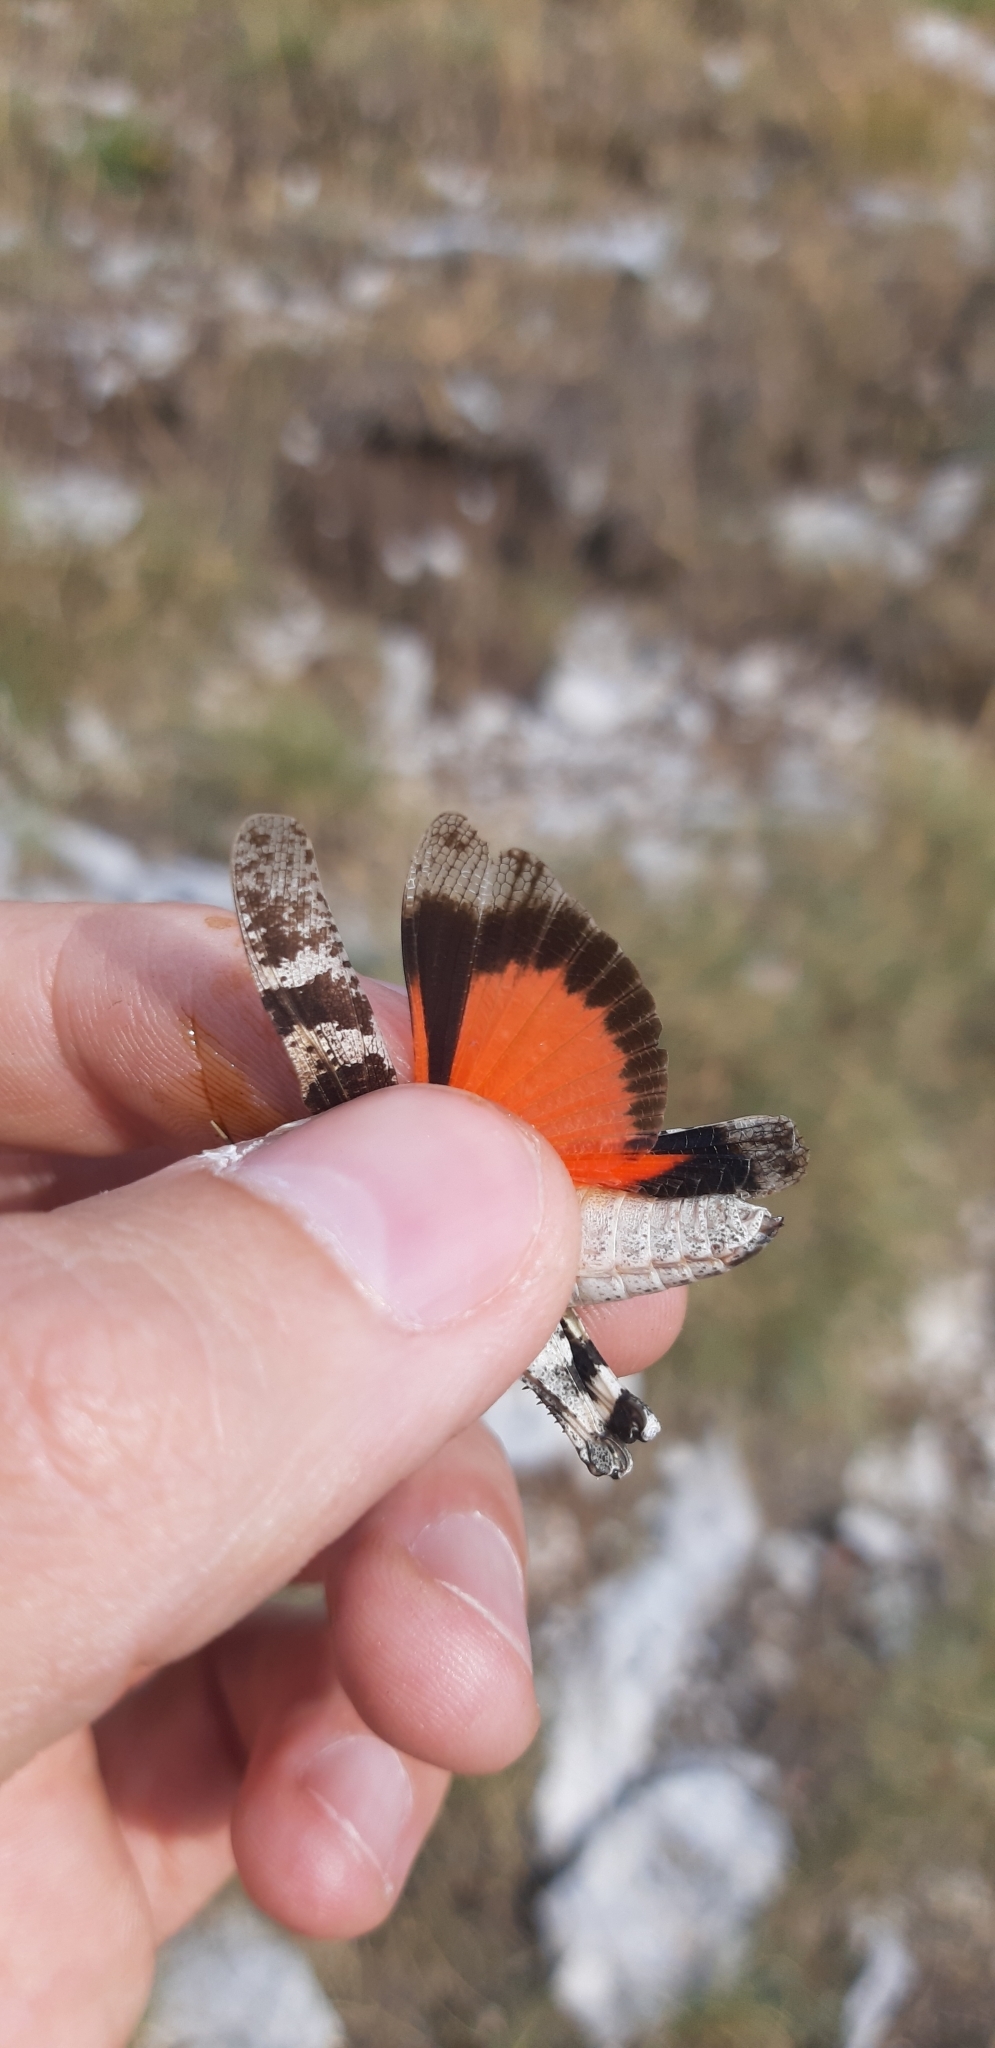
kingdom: Animalia
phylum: Arthropoda
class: Insecta
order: Orthoptera
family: Acrididae
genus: Oedipoda
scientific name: Oedipoda germanica
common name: Red band-winged grasshopper
